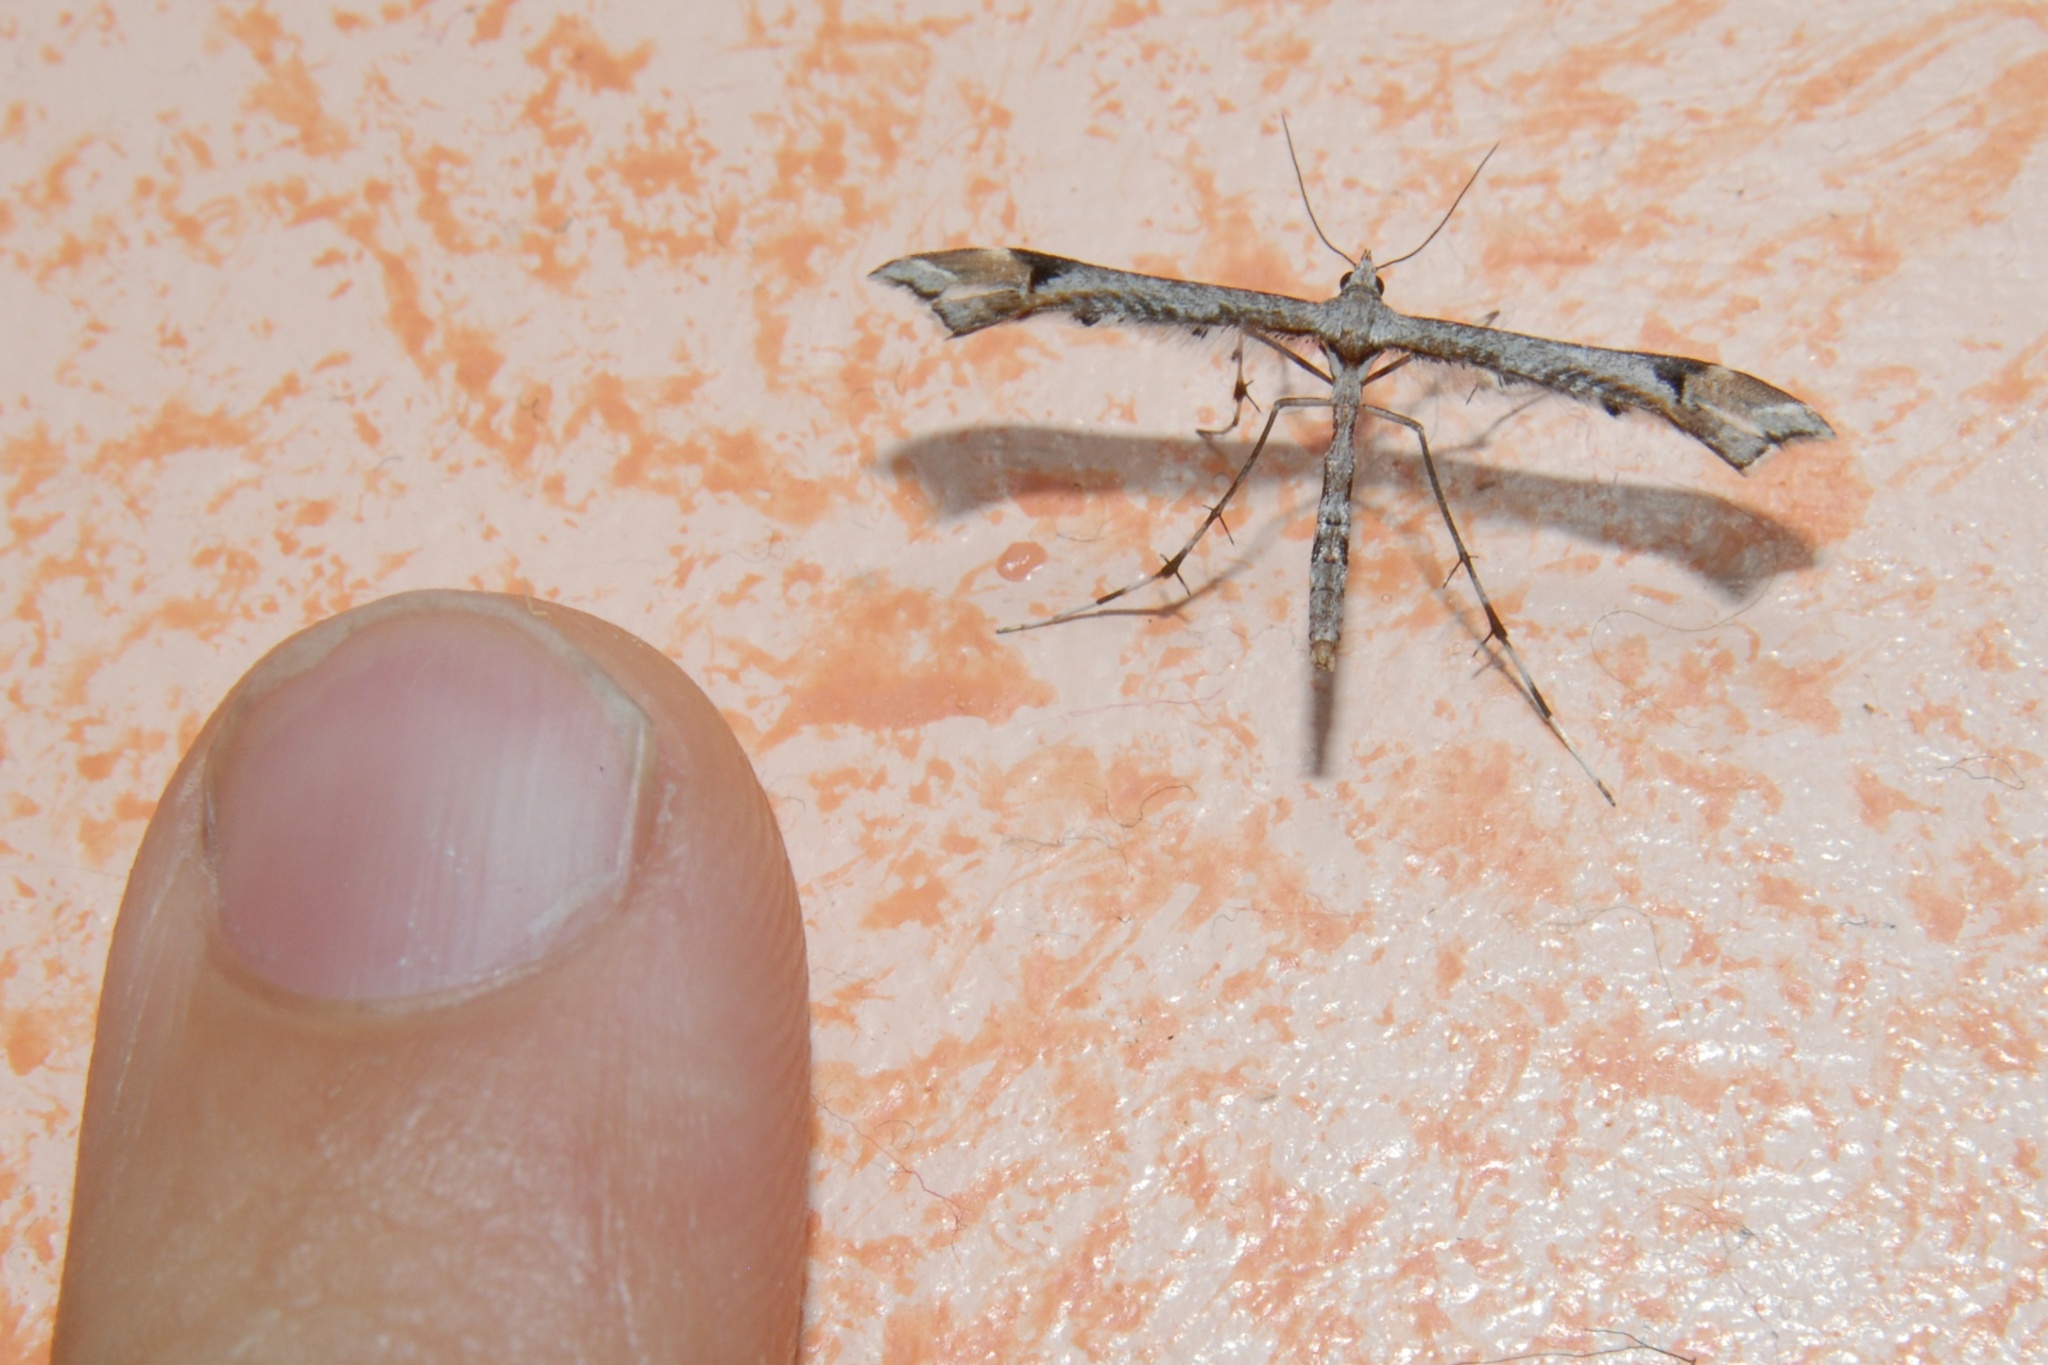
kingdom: Animalia
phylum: Arthropoda
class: Insecta
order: Lepidoptera
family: Pterophoridae
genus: Amblyptilia
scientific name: Amblyptilia falcatalis
